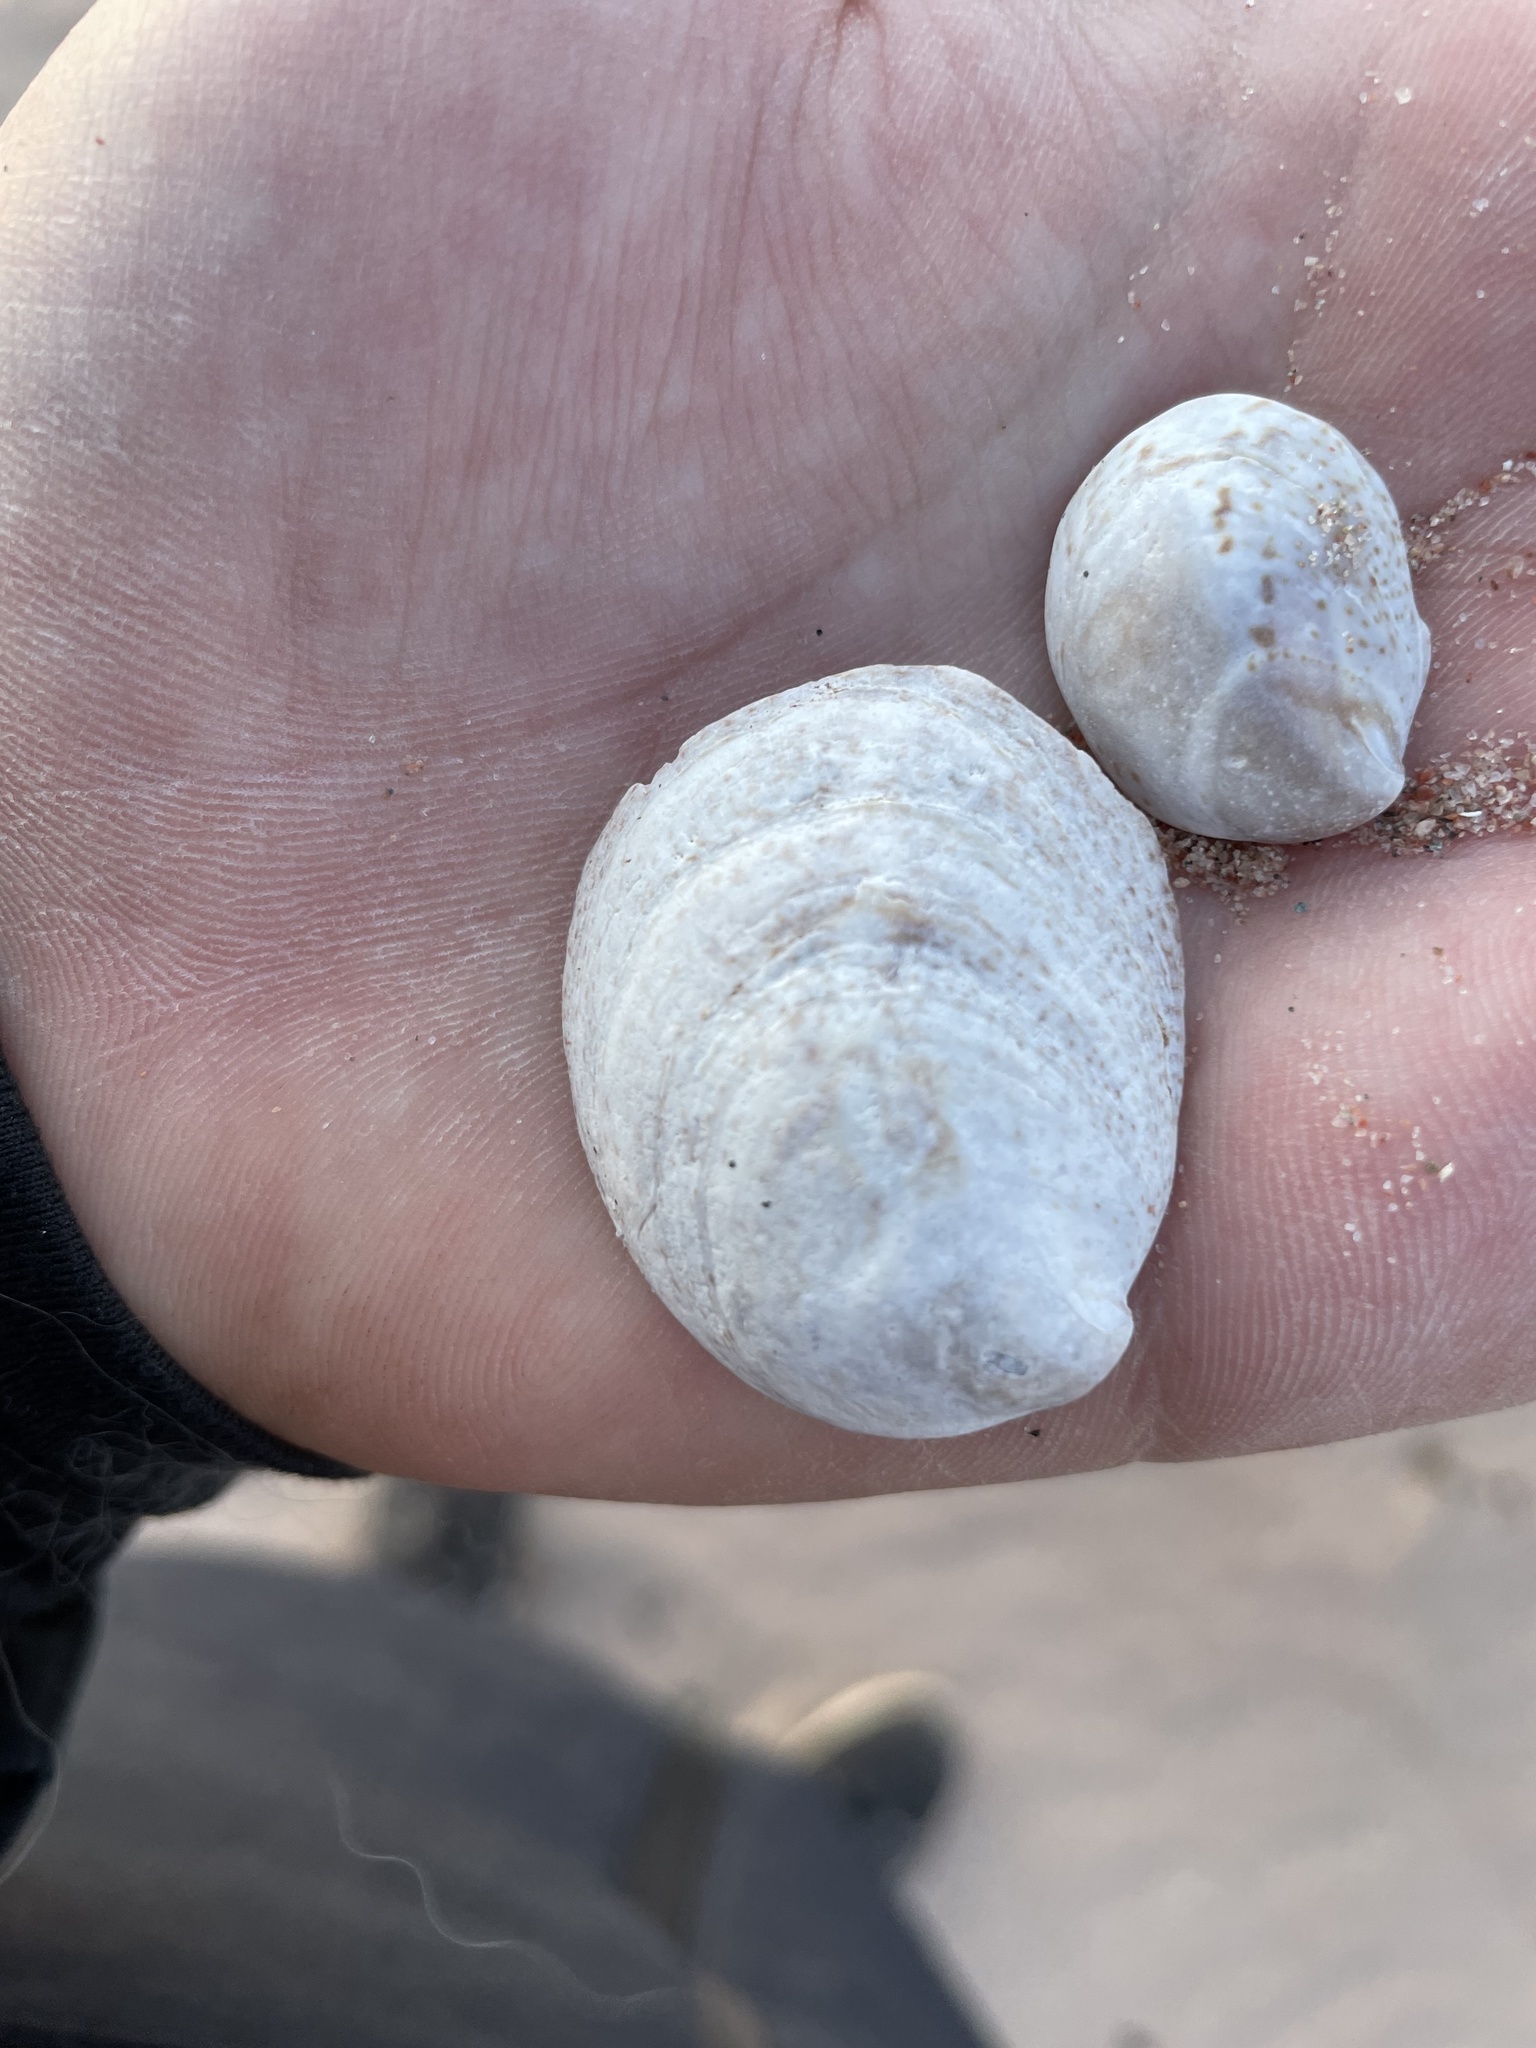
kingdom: Animalia
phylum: Mollusca
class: Gastropoda
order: Littorinimorpha
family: Calyptraeidae
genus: Crepidula
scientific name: Crepidula fornicata
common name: Slipper limpet
